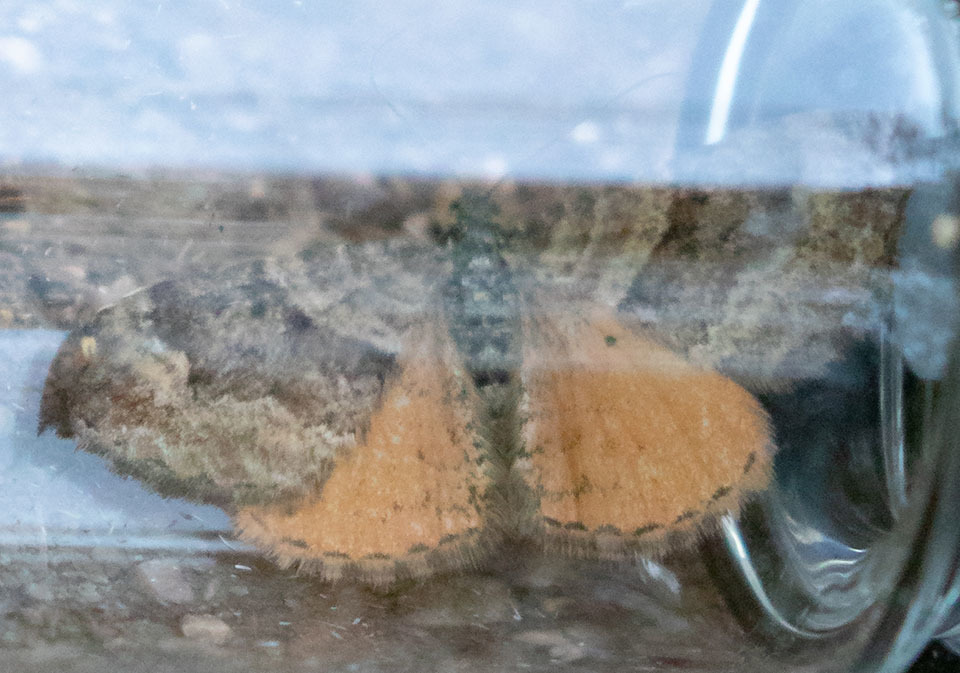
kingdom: Animalia
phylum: Arthropoda
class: Insecta
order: Lepidoptera
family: Geometridae
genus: Epirrhoe
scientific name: Epirrhoe plebeculata
